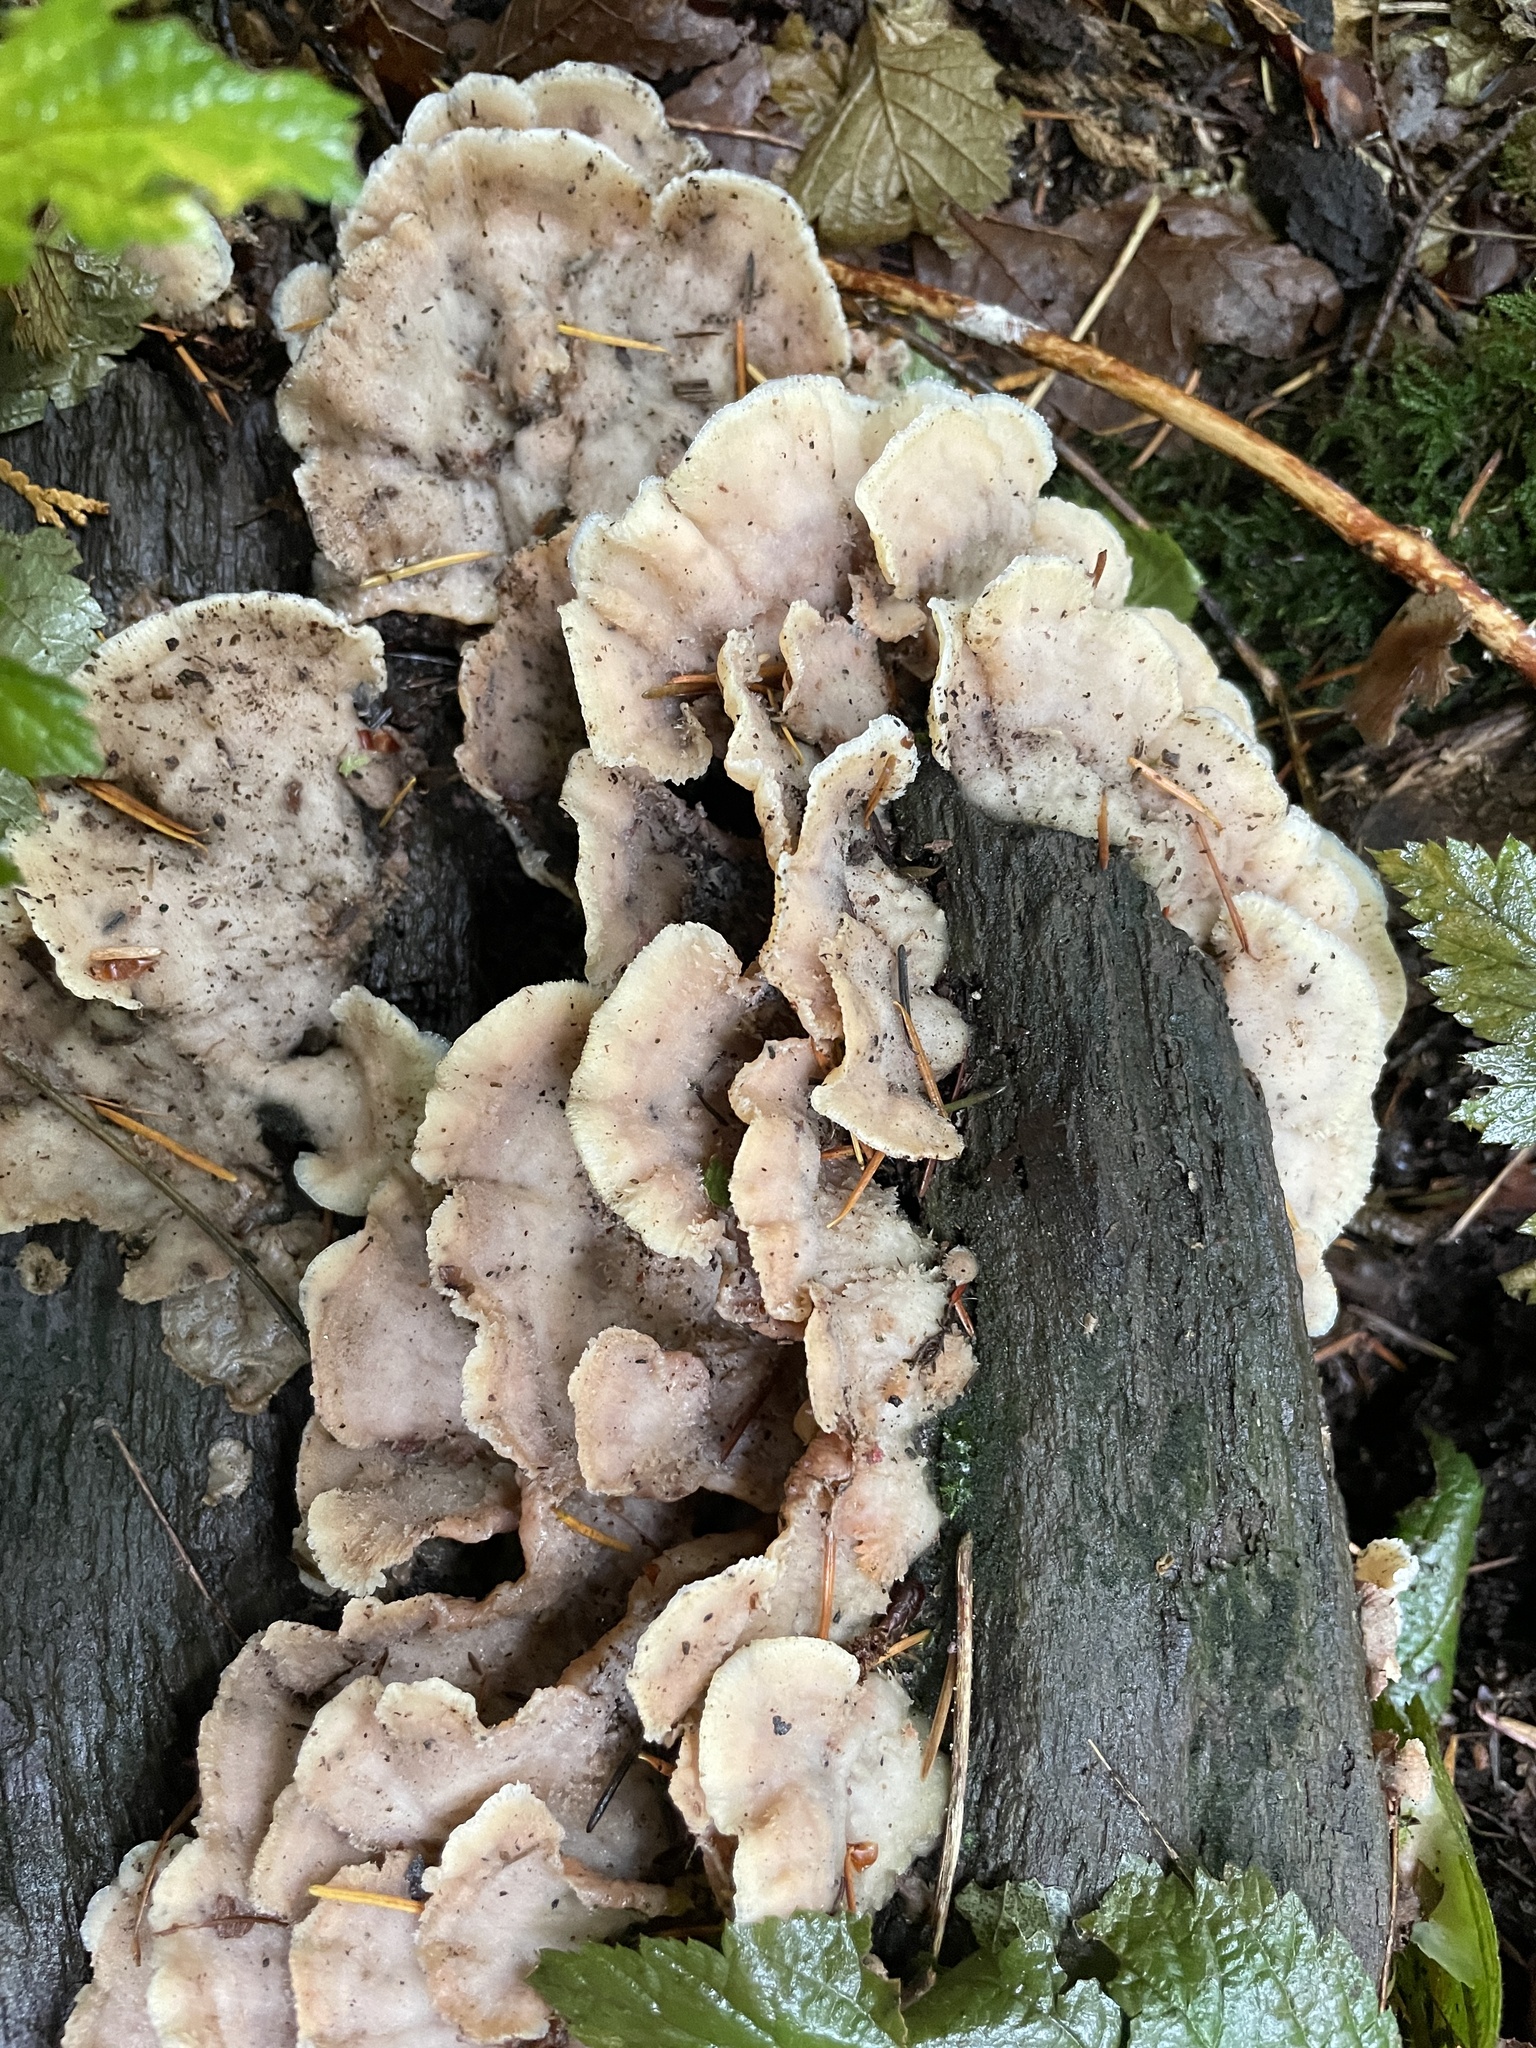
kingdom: Fungi
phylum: Basidiomycota
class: Agaricomycetes
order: Polyporales
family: Meruliaceae
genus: Phlebia
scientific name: Phlebia tremellosa
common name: Jelly rot
